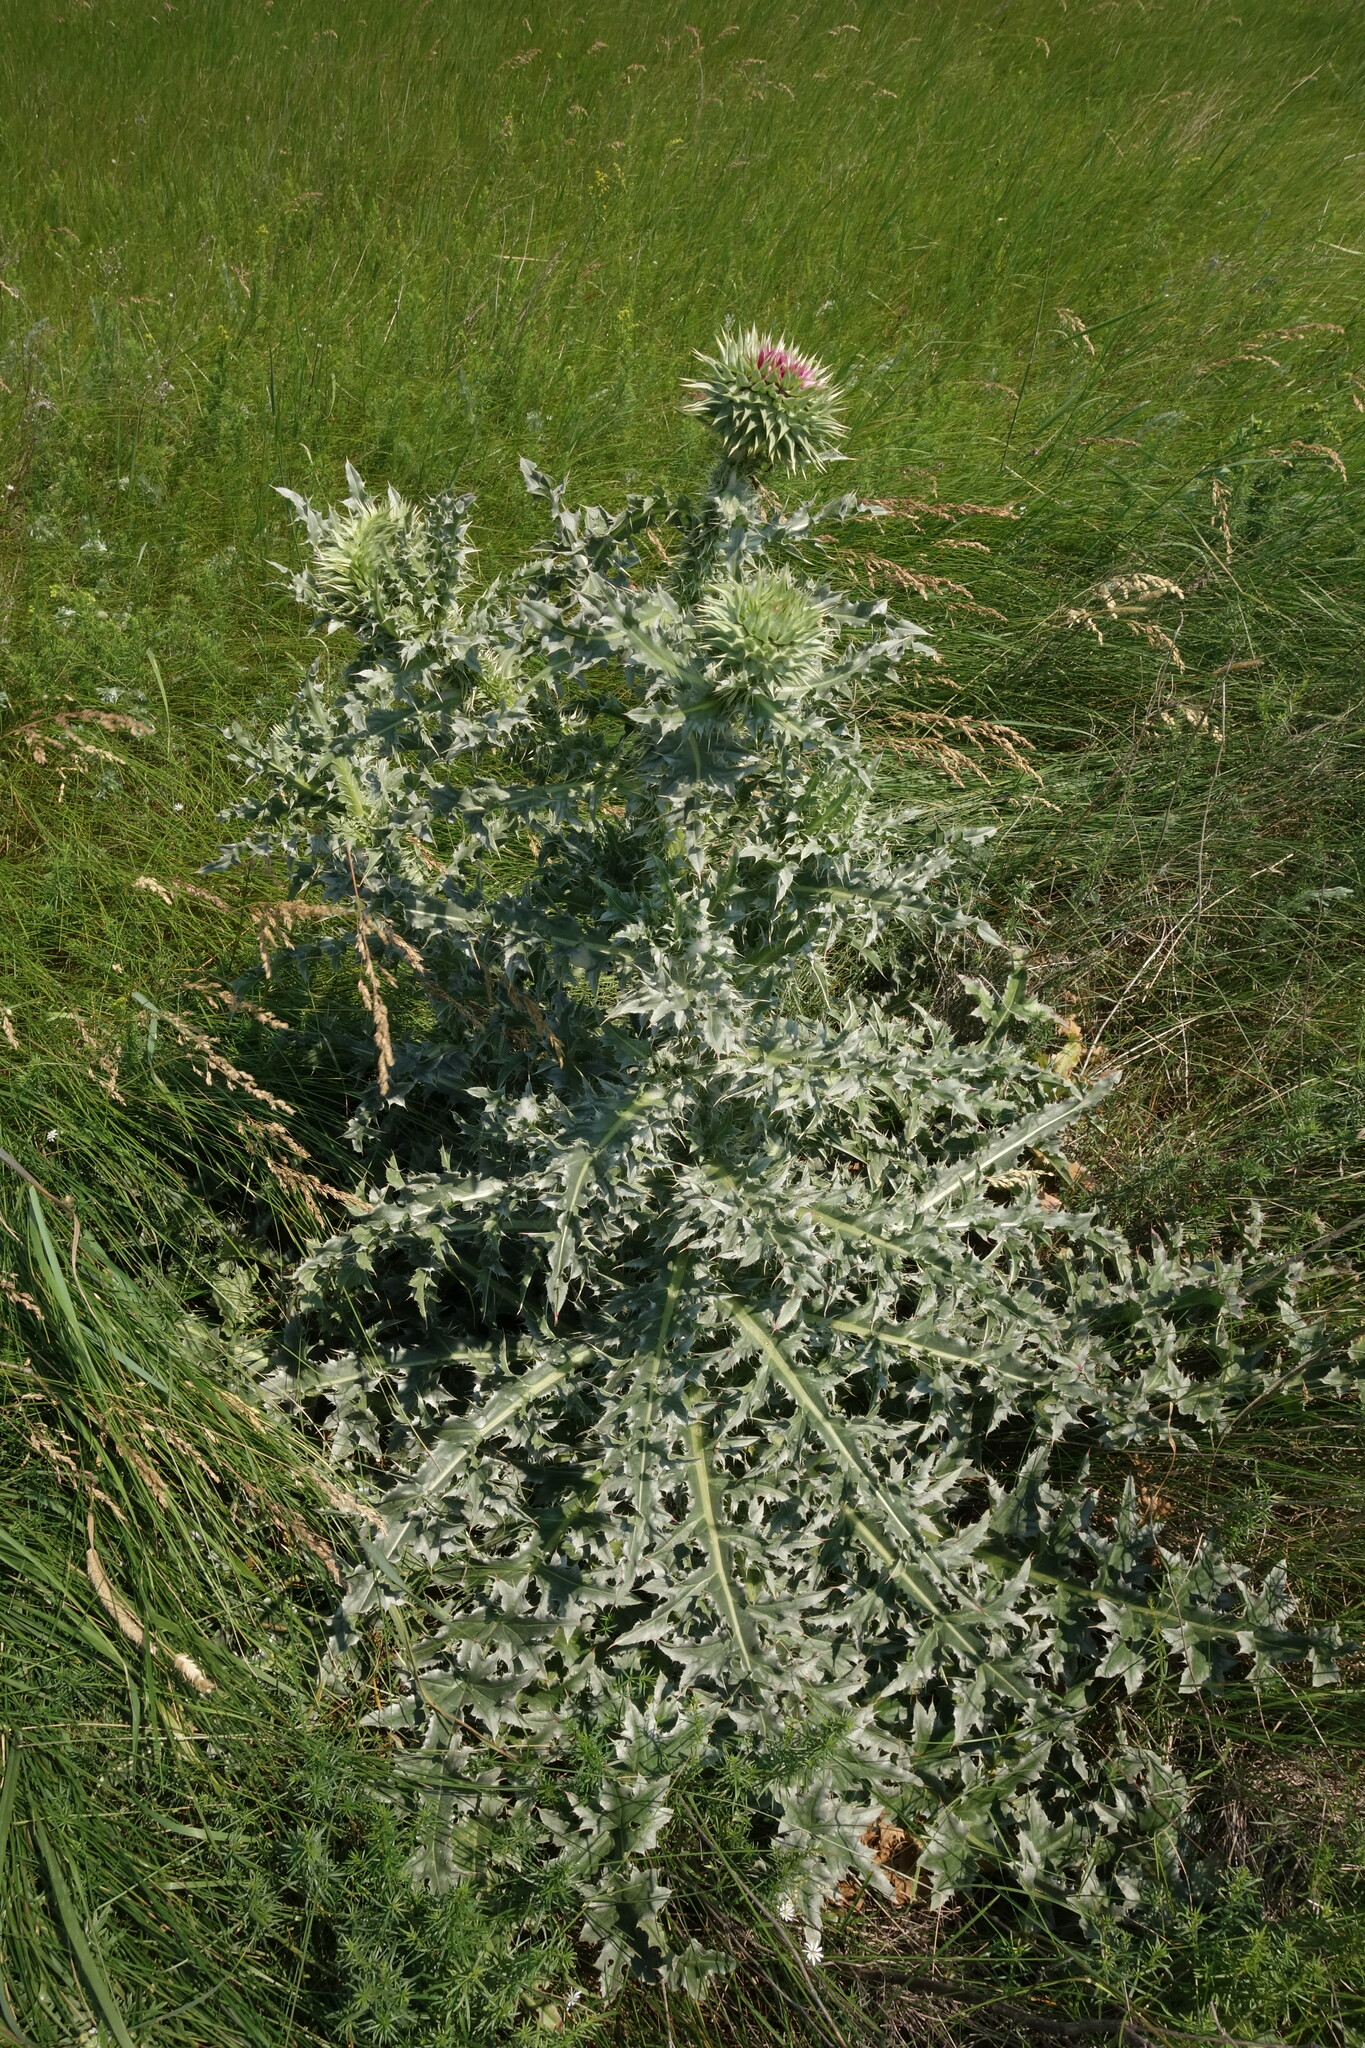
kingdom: Plantae
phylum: Tracheophyta
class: Magnoliopsida
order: Asterales
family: Asteraceae
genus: Carduus
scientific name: Carduus nutans
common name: Musk thistle
